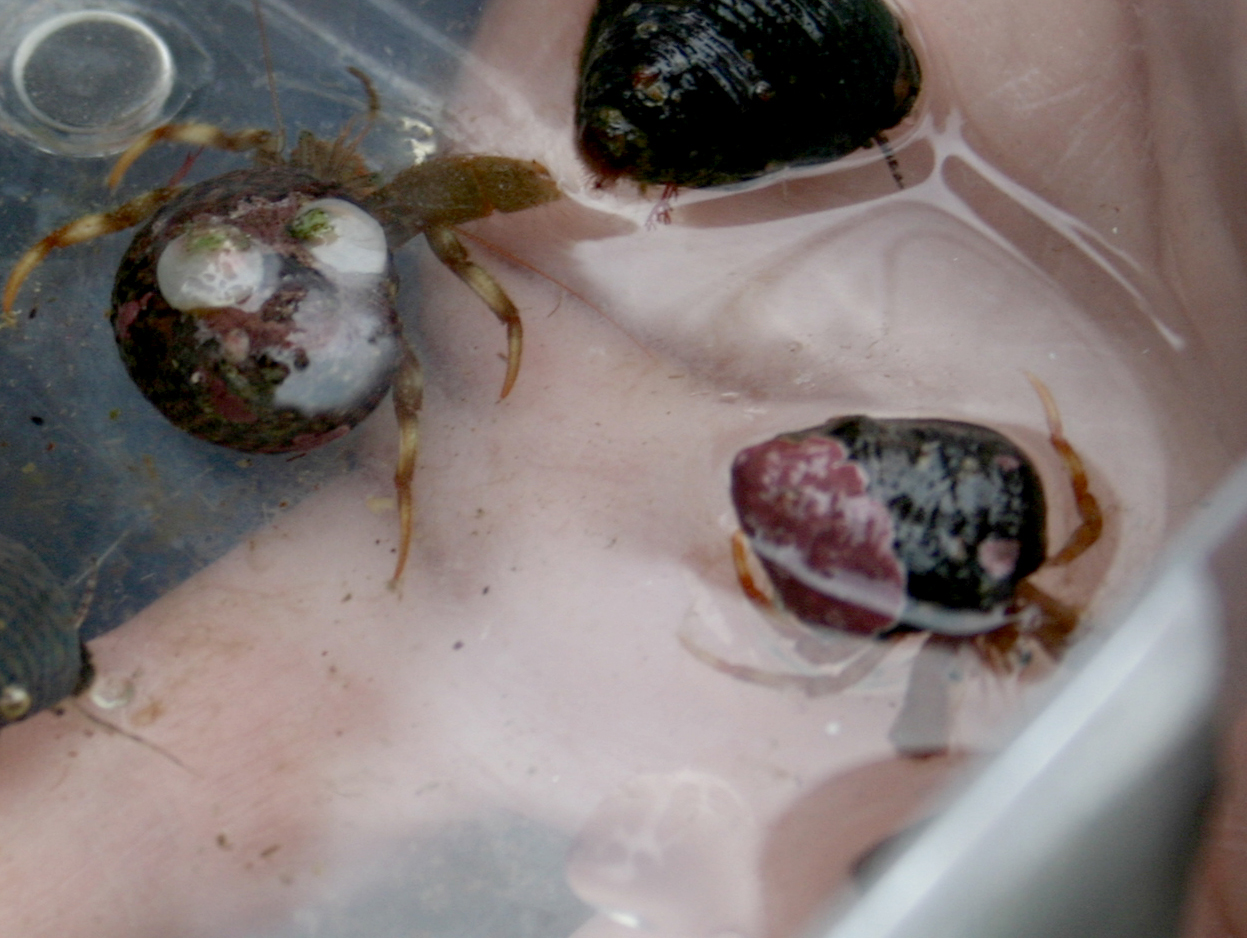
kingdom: Animalia
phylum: Arthropoda
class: Malacostraca
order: Decapoda
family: Paguridae
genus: Pagurus
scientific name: Pagurus bernhardus
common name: Hermit crab
